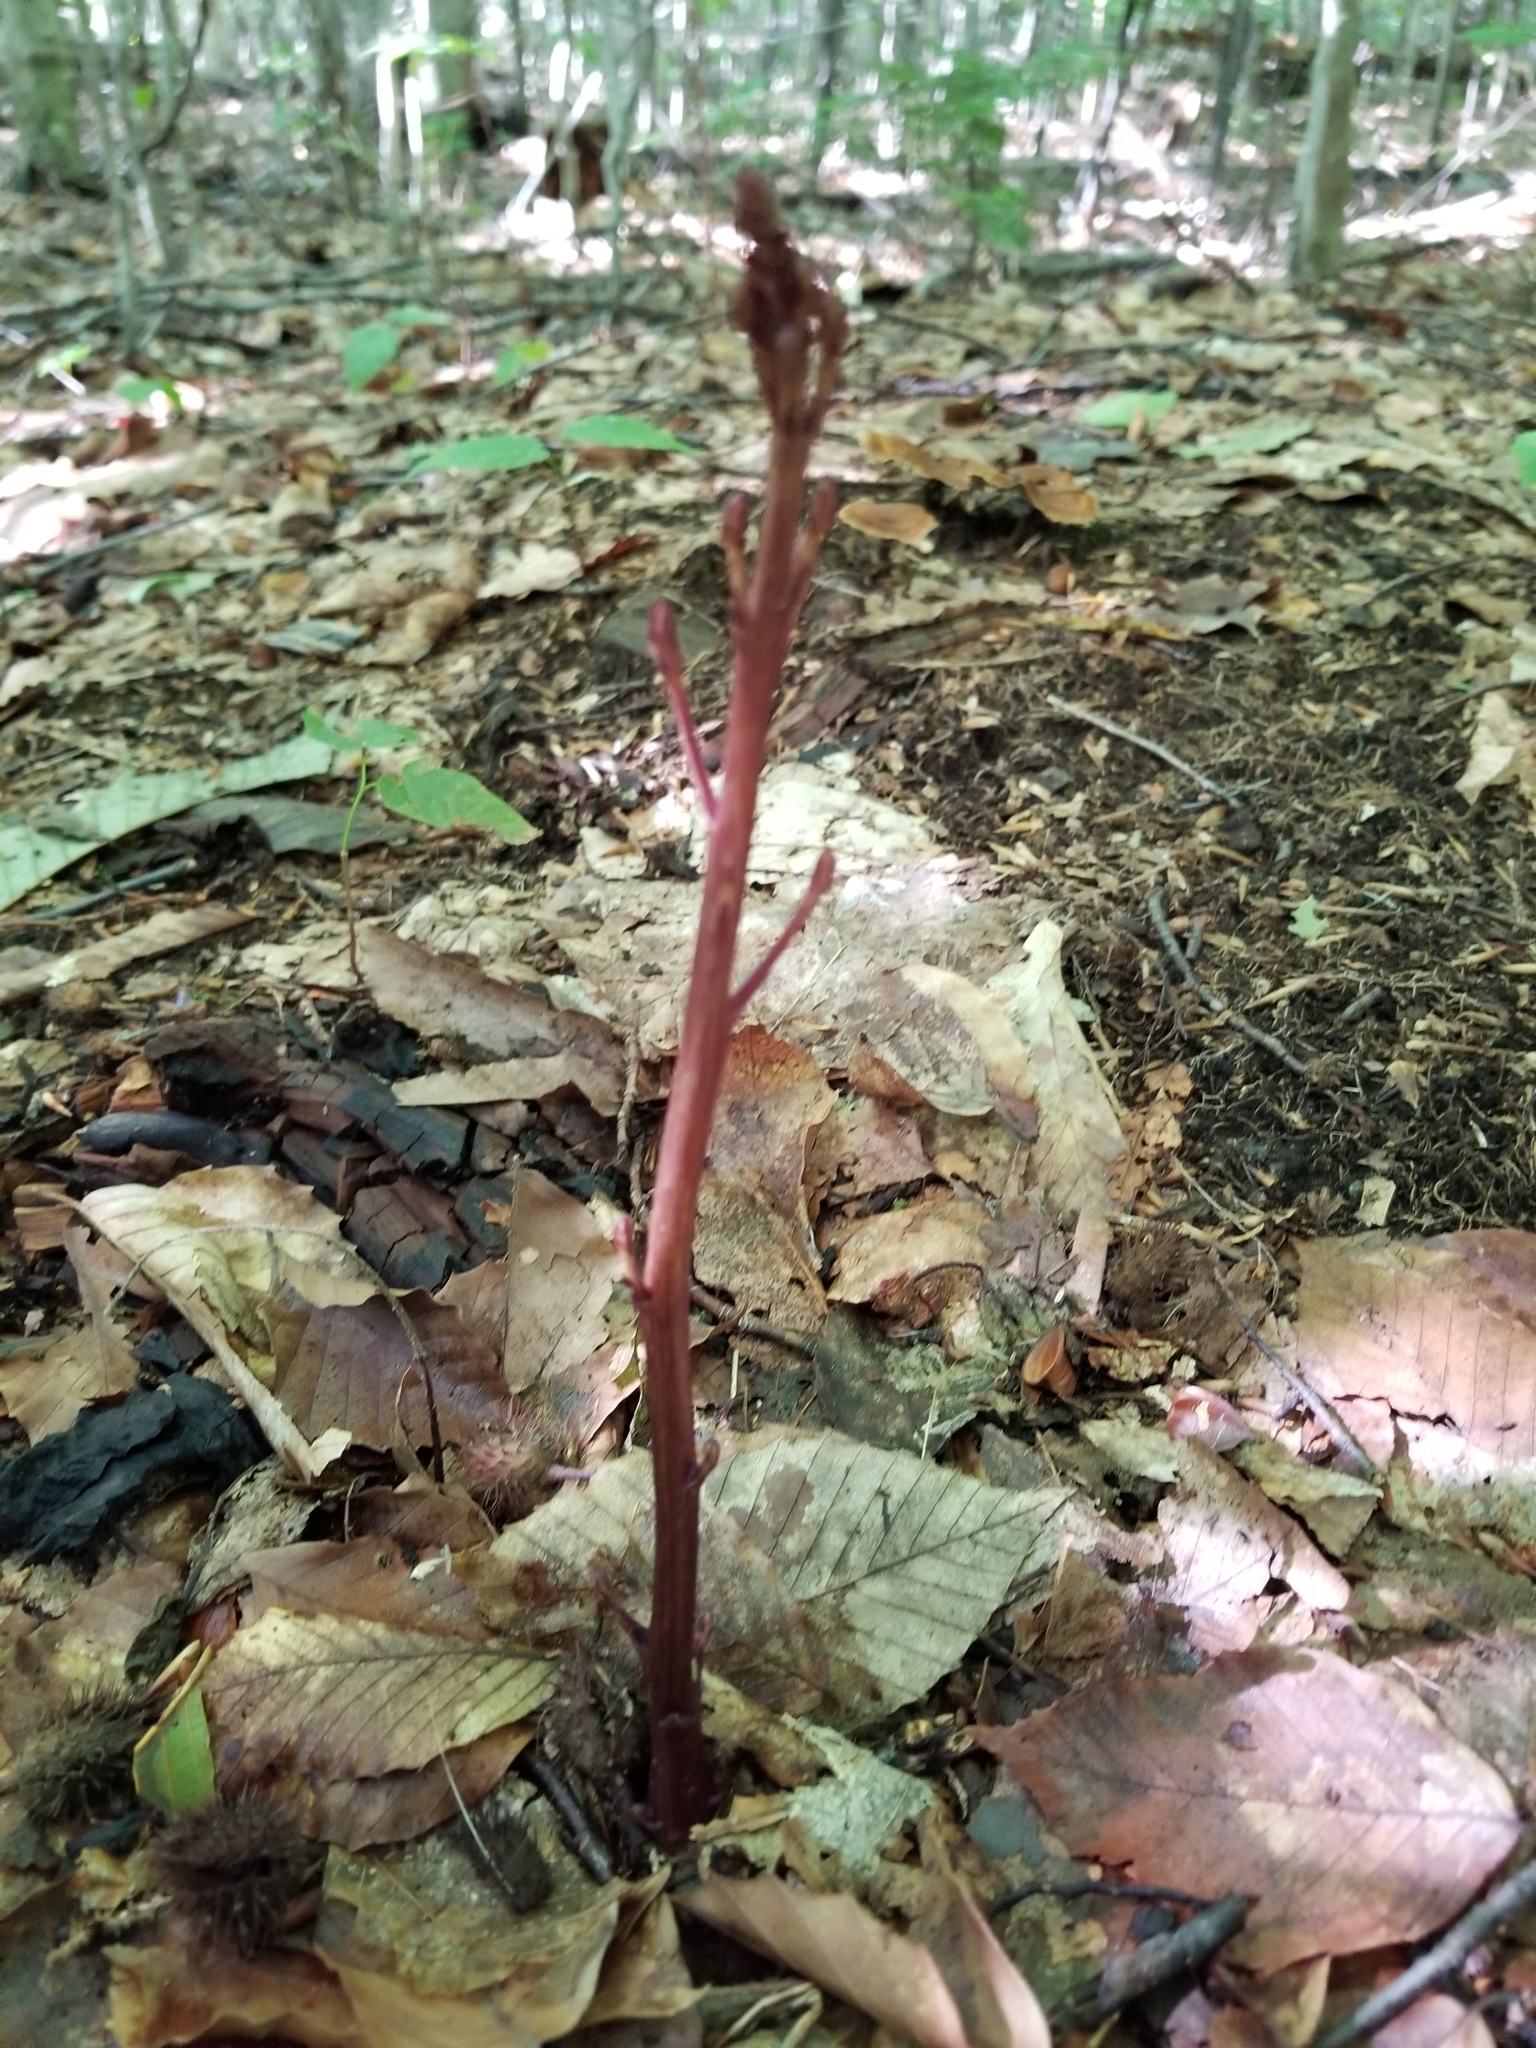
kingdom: Plantae
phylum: Tracheophyta
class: Magnoliopsida
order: Lamiales
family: Orobanchaceae
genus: Epifagus
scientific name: Epifagus virginiana
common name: Beechdrops
